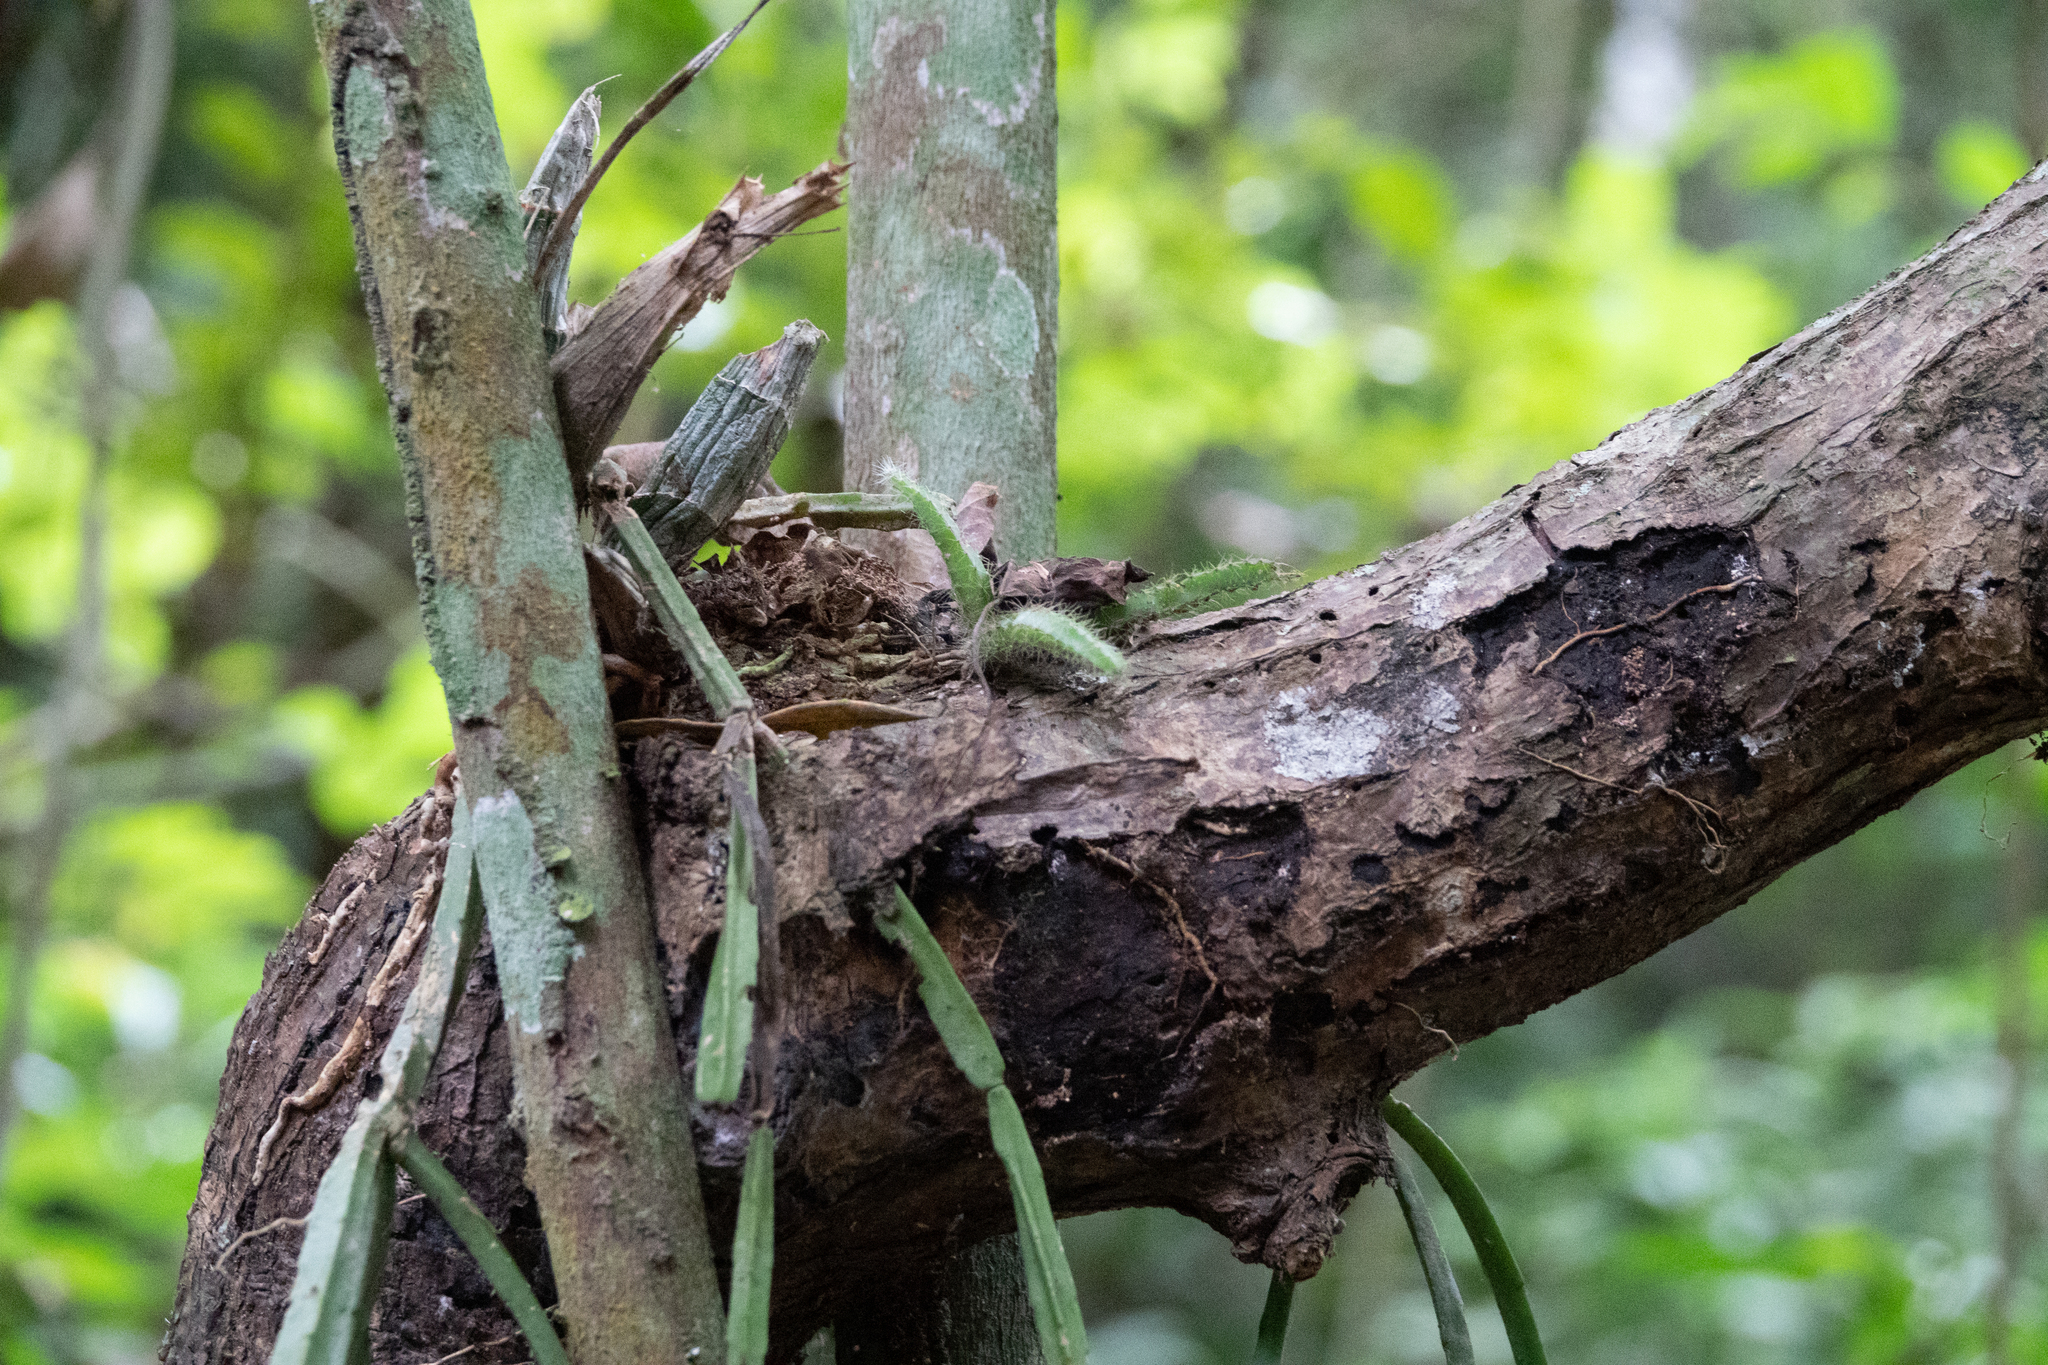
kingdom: Plantae
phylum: Tracheophyta
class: Magnoliopsida
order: Caryophyllales
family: Cactaceae
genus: Rhipsalis
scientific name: Rhipsalis micrantha
